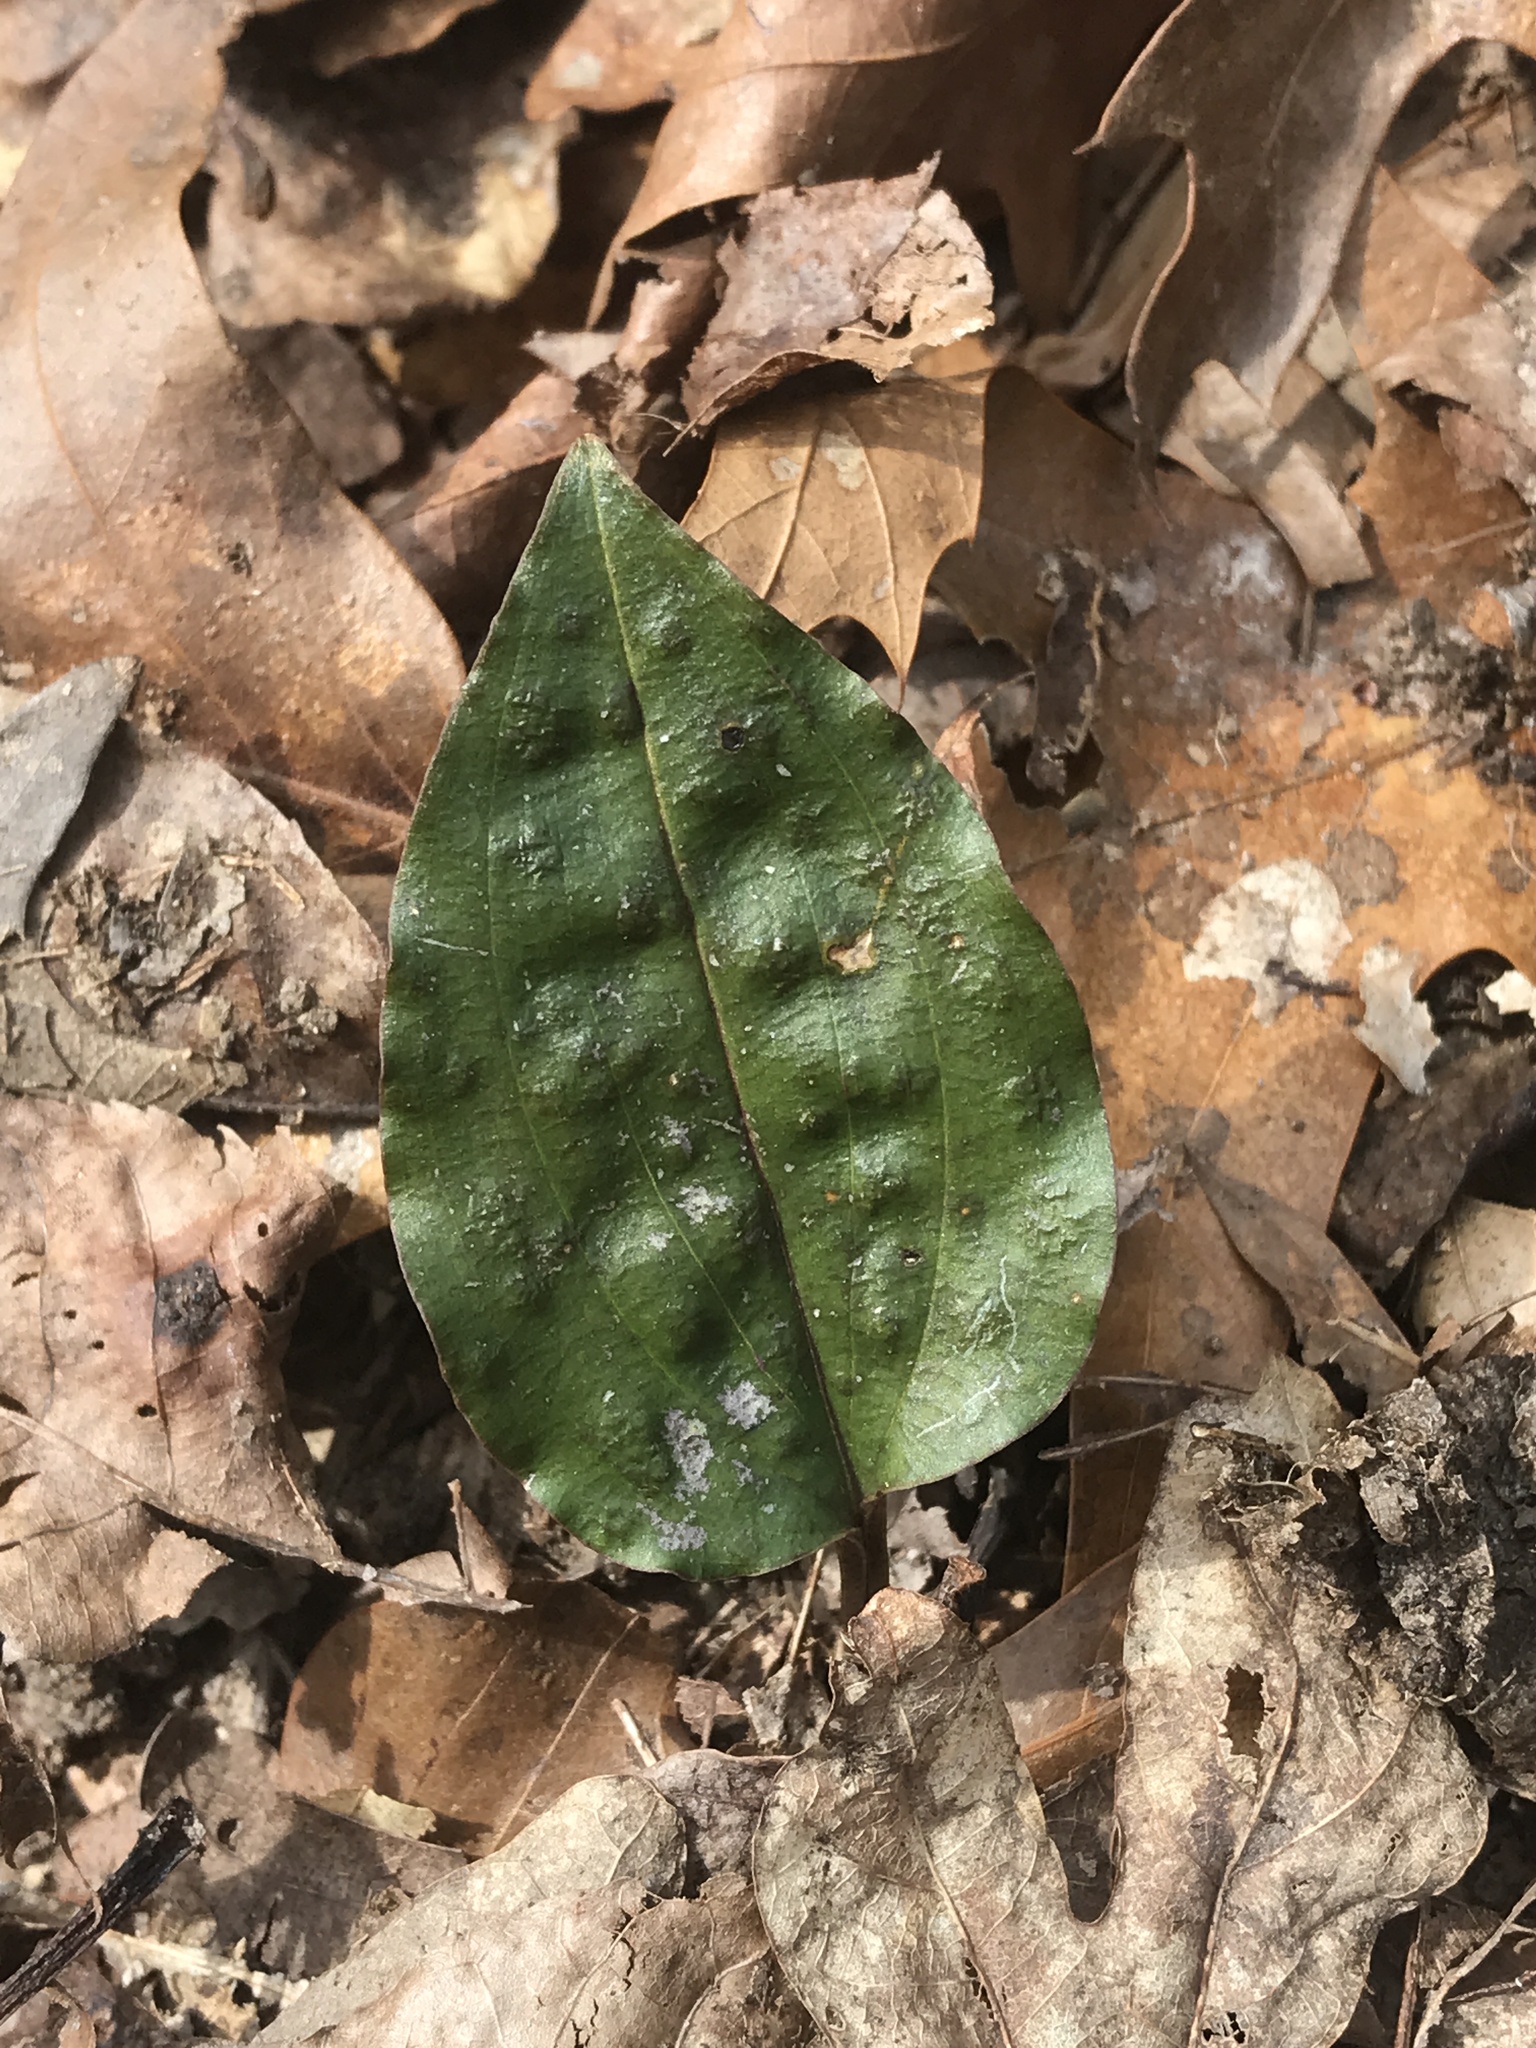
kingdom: Plantae
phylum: Tracheophyta
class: Liliopsida
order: Asparagales
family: Orchidaceae
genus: Tipularia
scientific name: Tipularia discolor
